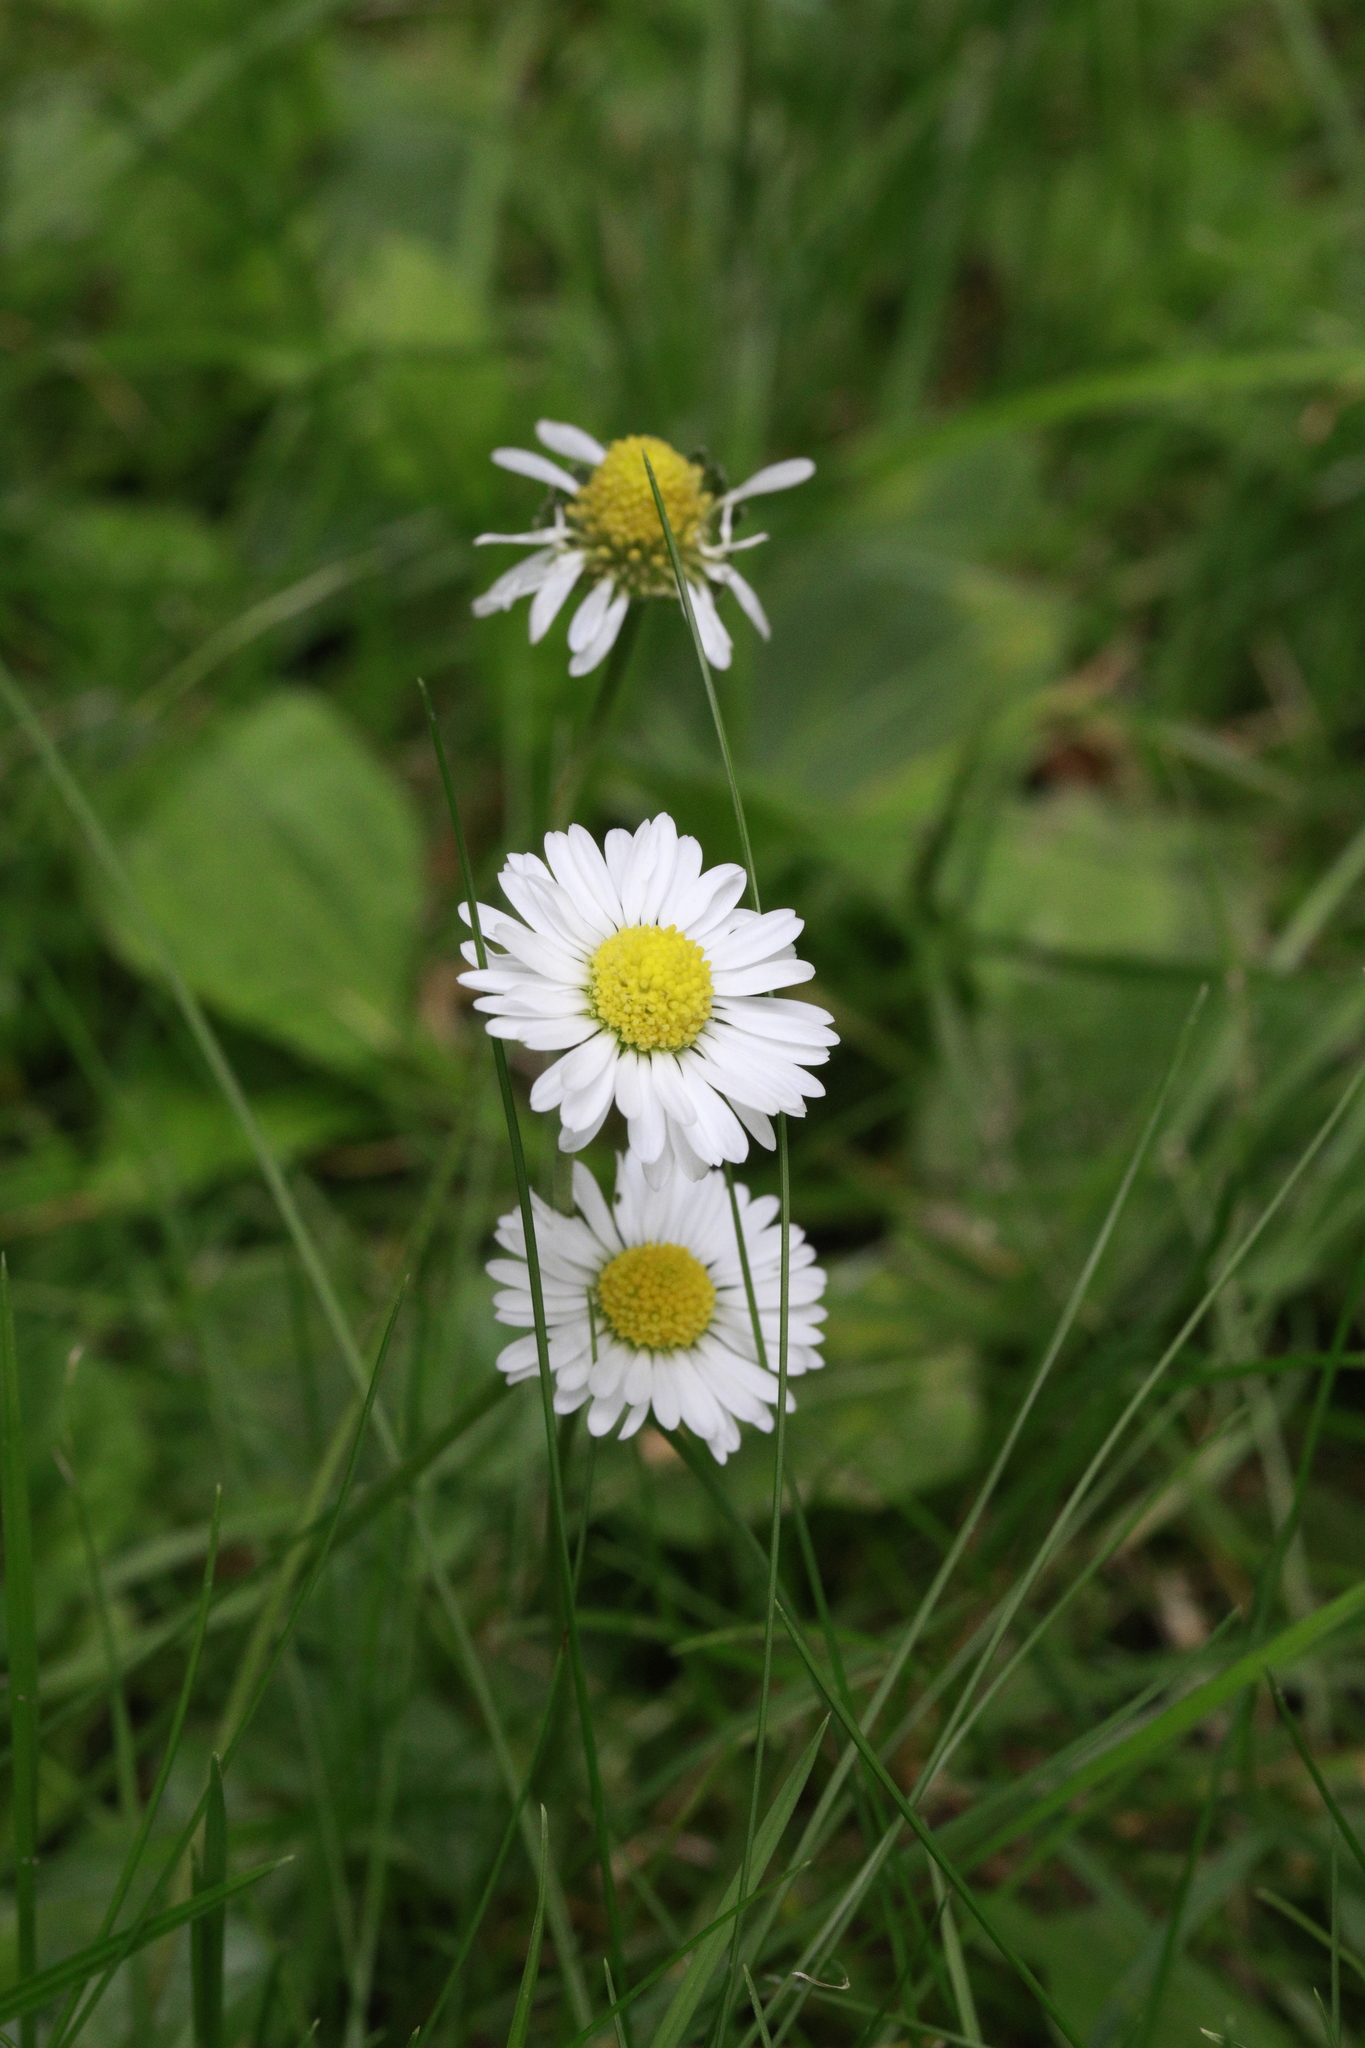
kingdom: Plantae
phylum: Tracheophyta
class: Magnoliopsida
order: Asterales
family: Asteraceae
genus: Bellis
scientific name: Bellis perennis
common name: Lawndaisy
